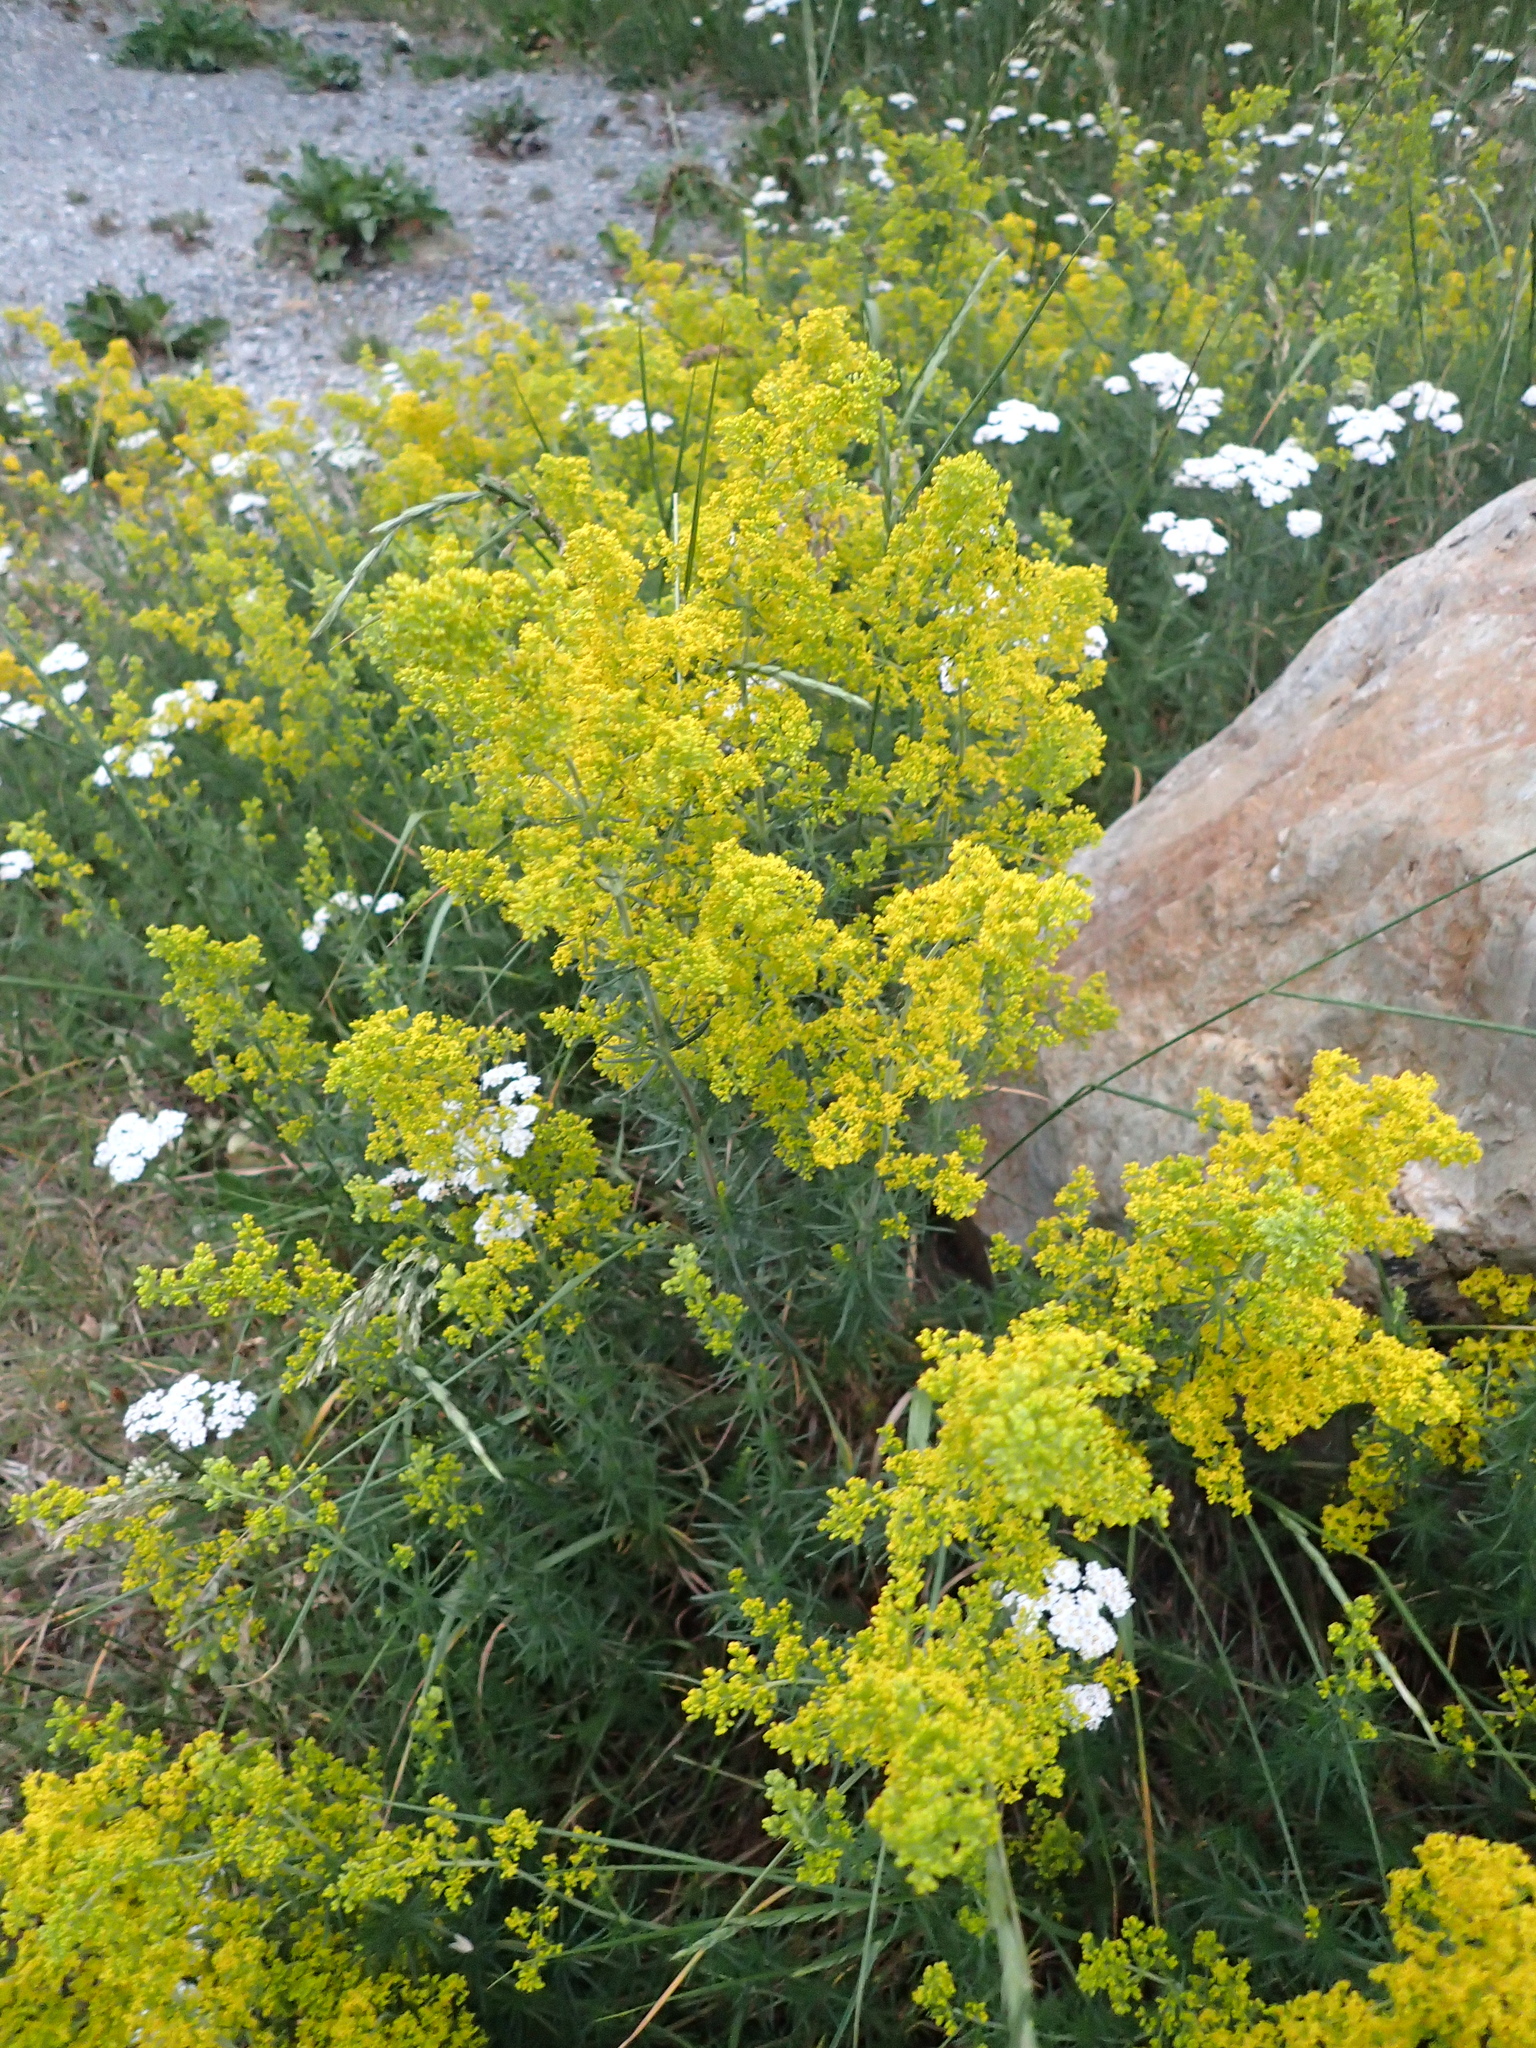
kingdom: Plantae
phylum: Tracheophyta
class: Magnoliopsida
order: Gentianales
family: Rubiaceae
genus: Galium
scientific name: Galium verum
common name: Lady's bedstraw
